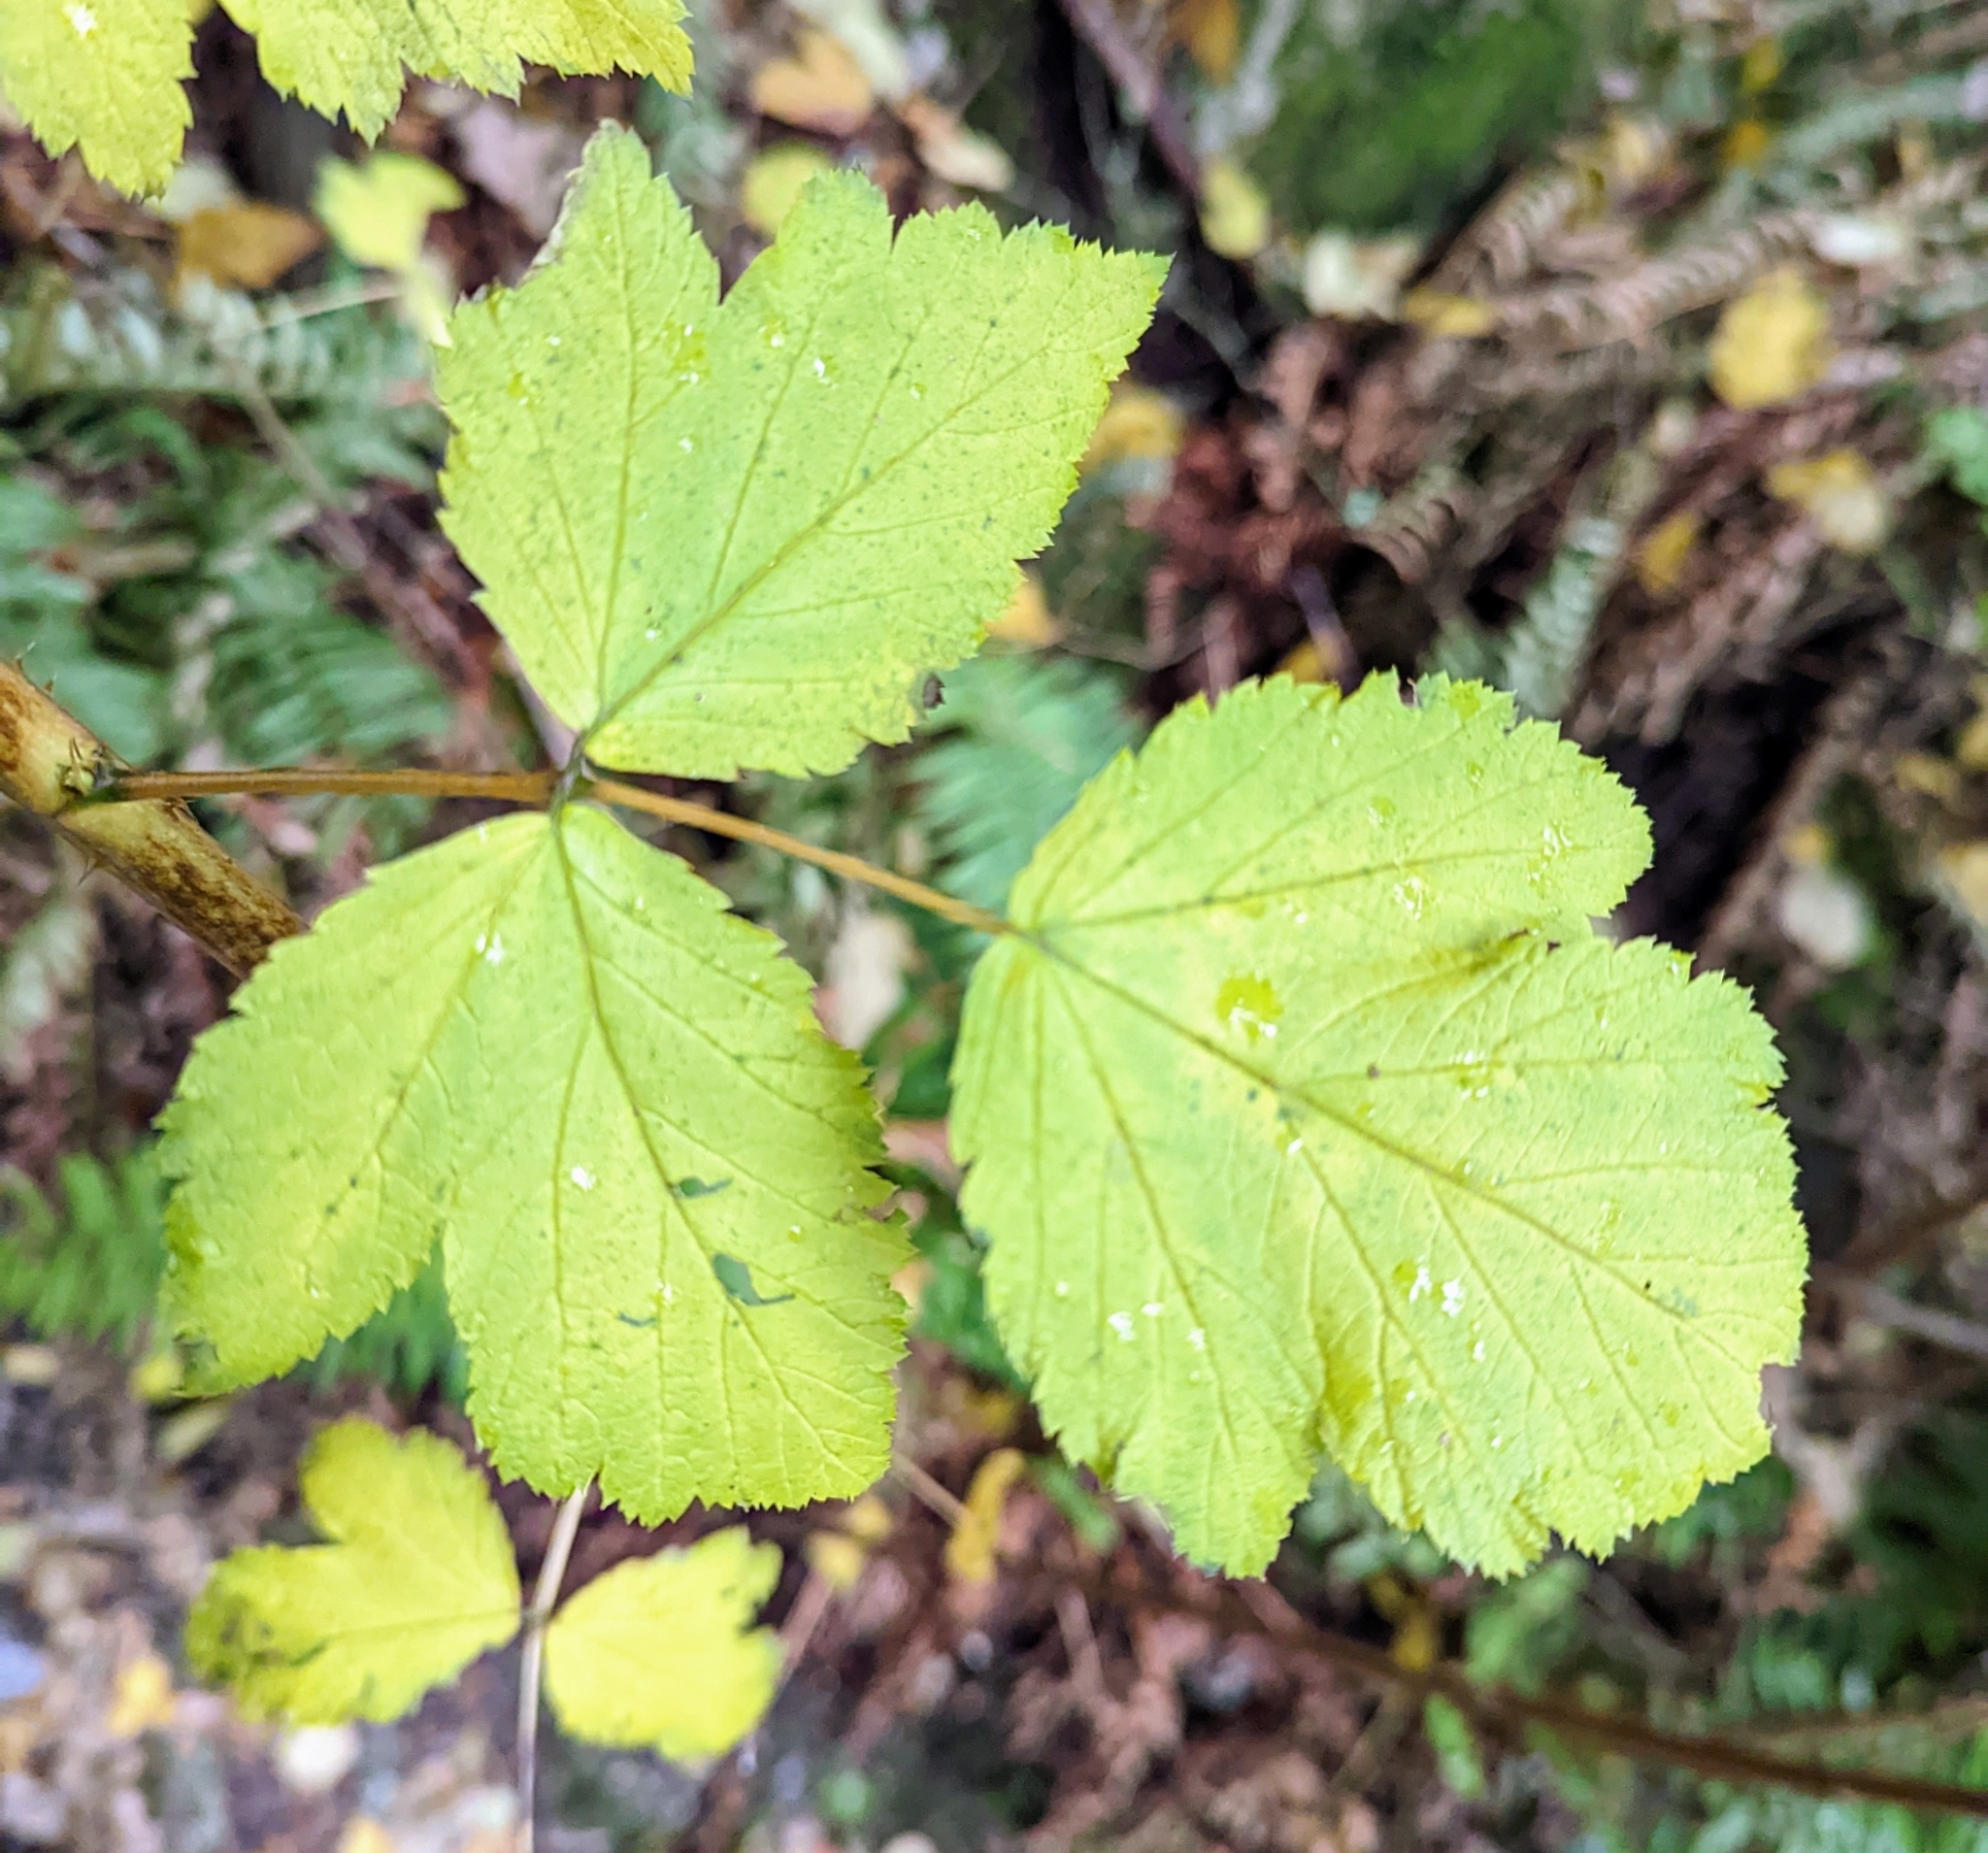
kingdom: Plantae
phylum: Tracheophyta
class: Magnoliopsida
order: Rosales
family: Rosaceae
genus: Rubus
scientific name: Rubus spectabilis
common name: Salmonberry
